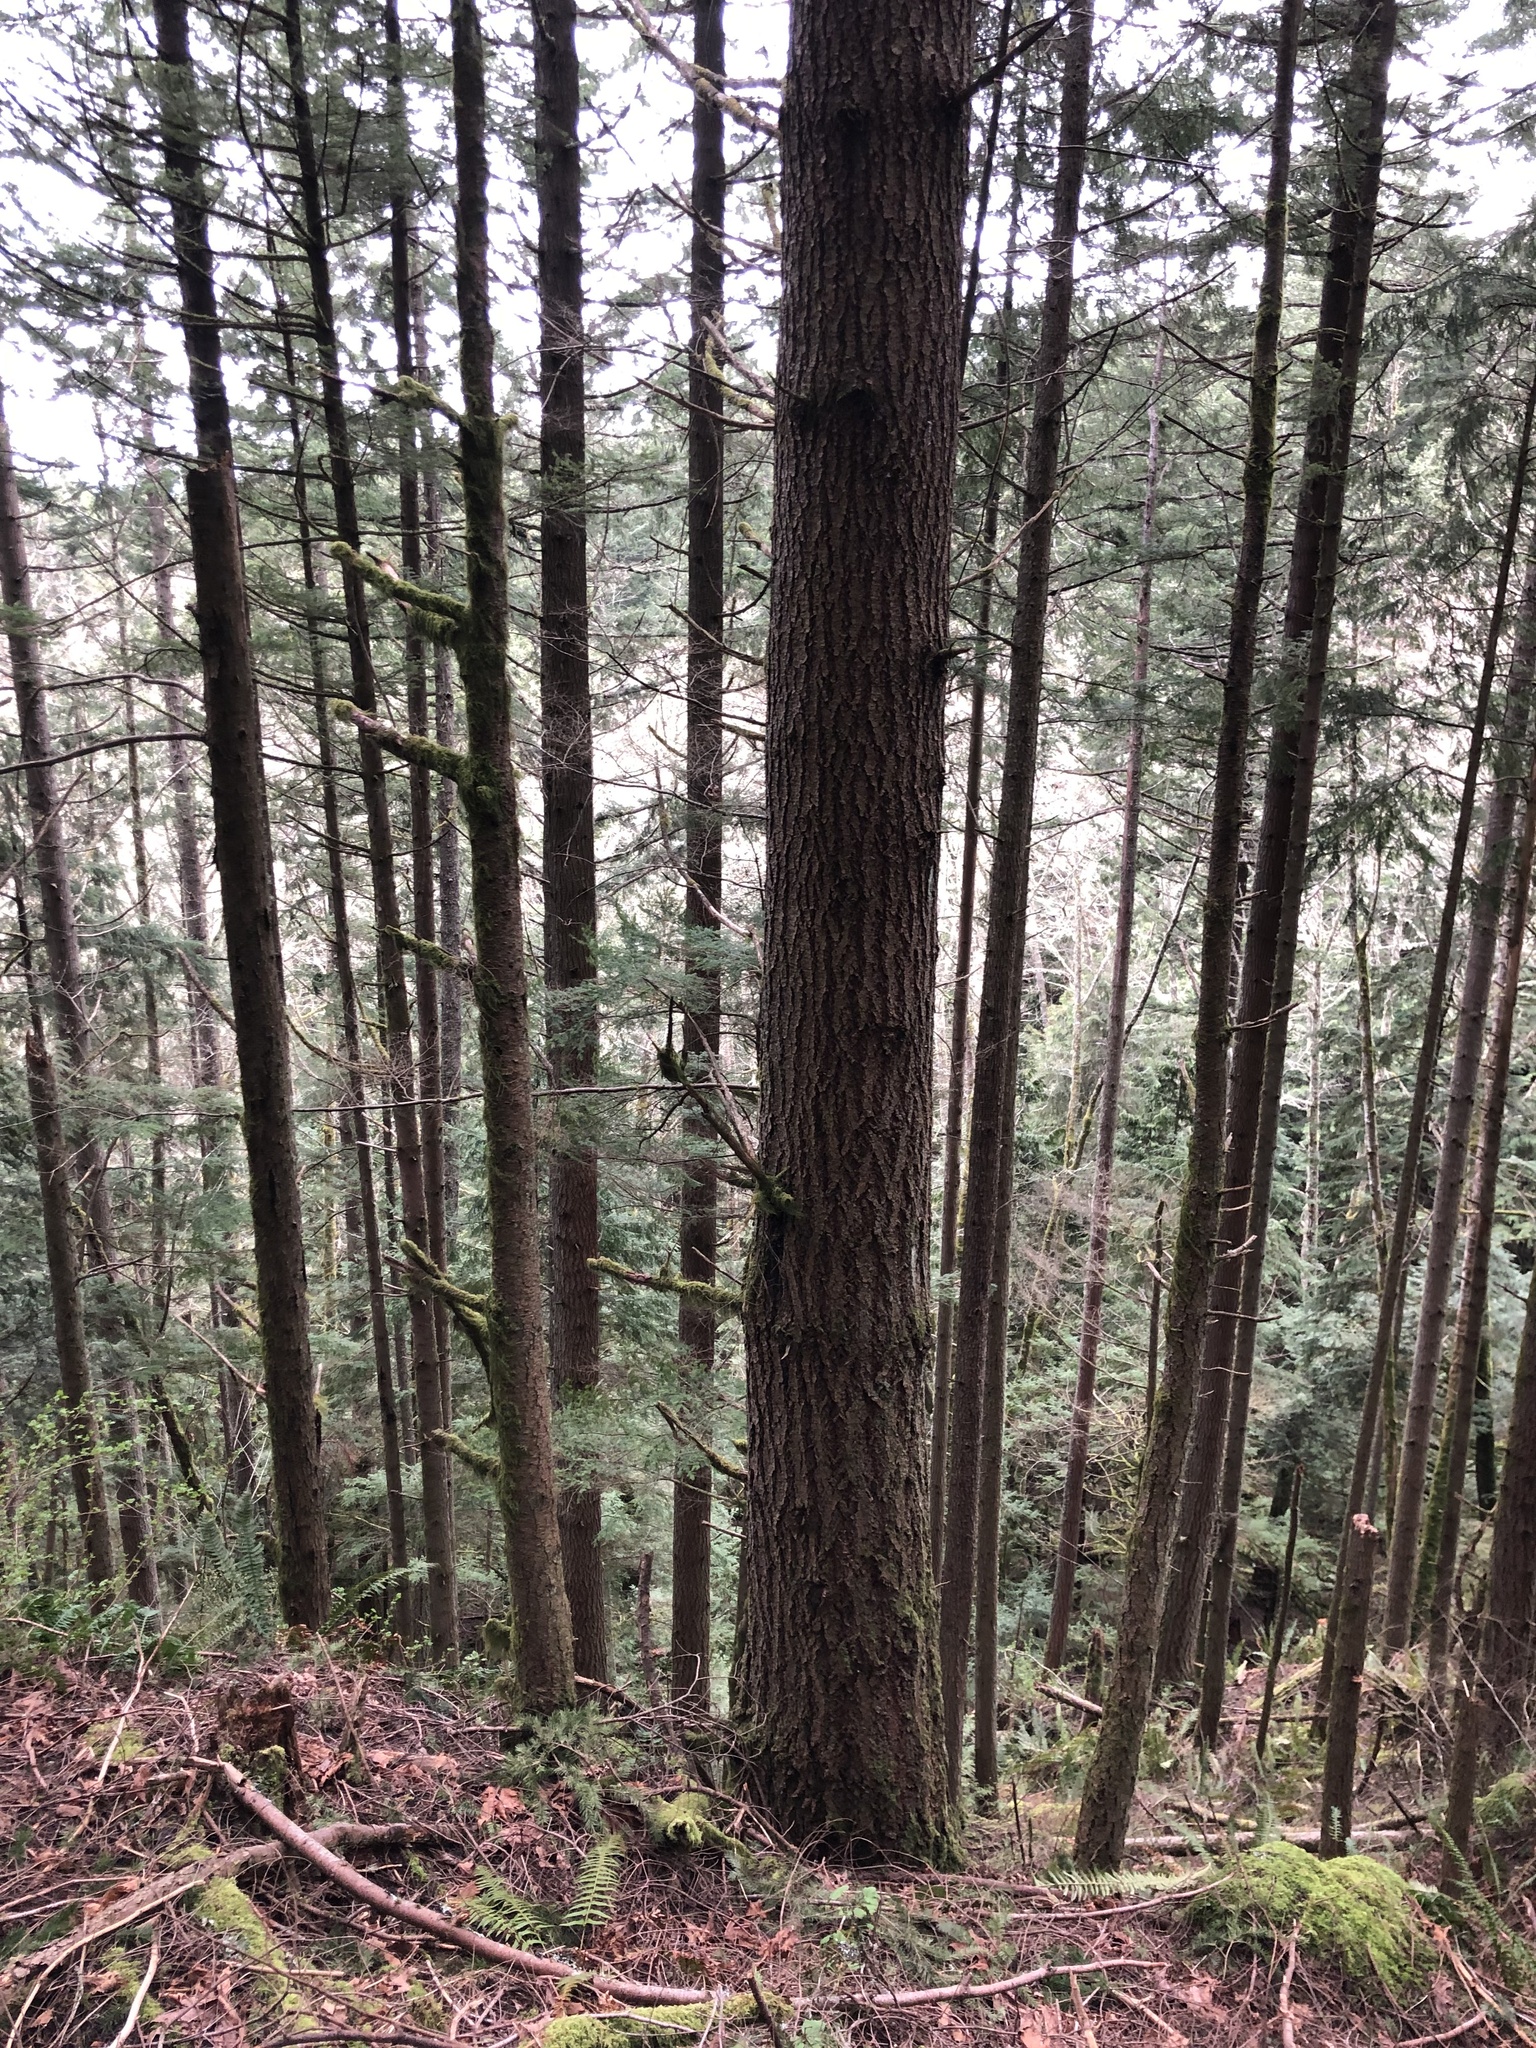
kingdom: Plantae
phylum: Tracheophyta
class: Pinopsida
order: Pinales
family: Pinaceae
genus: Pseudotsuga
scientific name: Pseudotsuga menziesii
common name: Douglas fir
